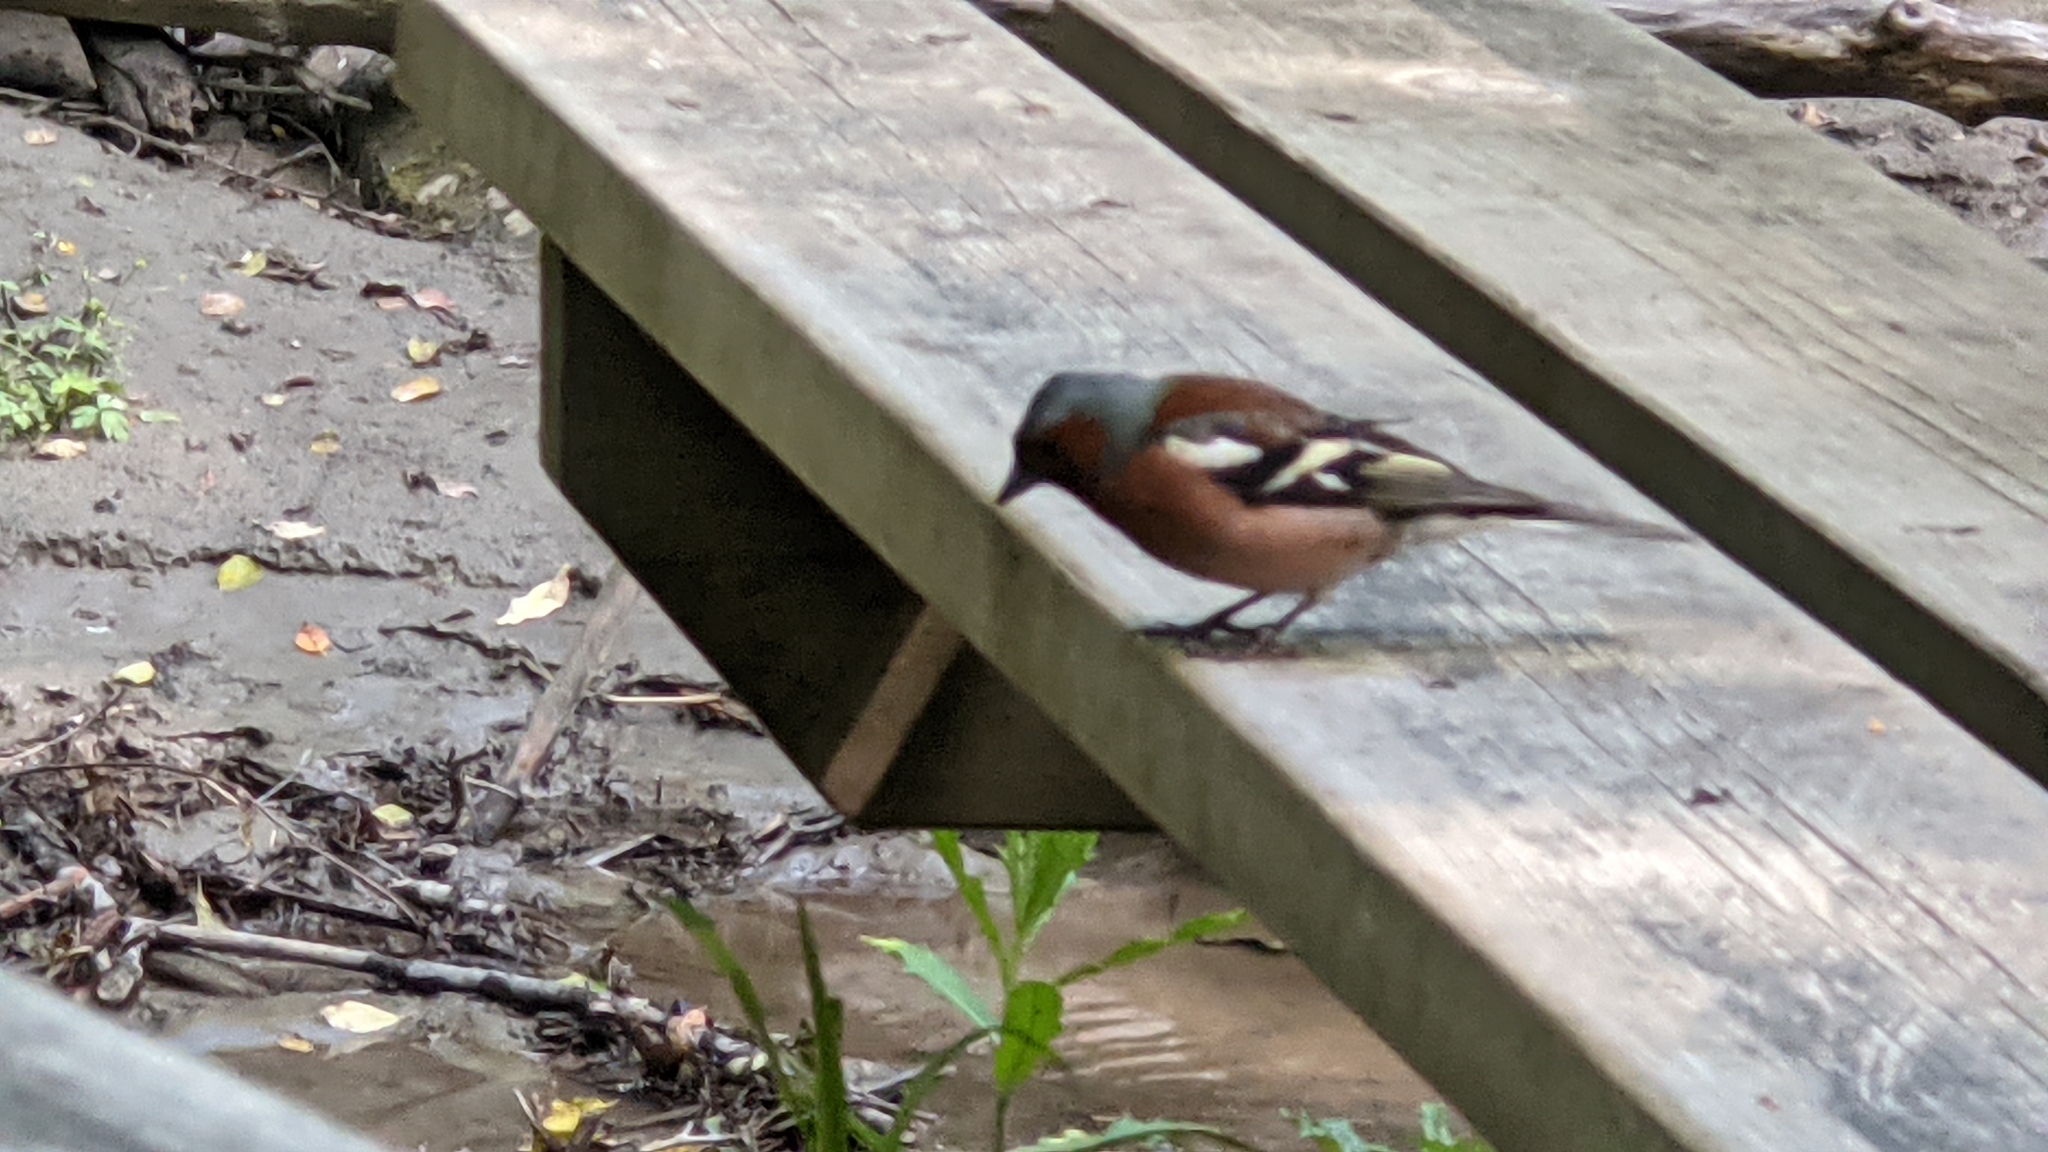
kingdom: Animalia
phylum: Chordata
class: Aves
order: Passeriformes
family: Fringillidae
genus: Fringilla
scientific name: Fringilla coelebs
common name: Common chaffinch
